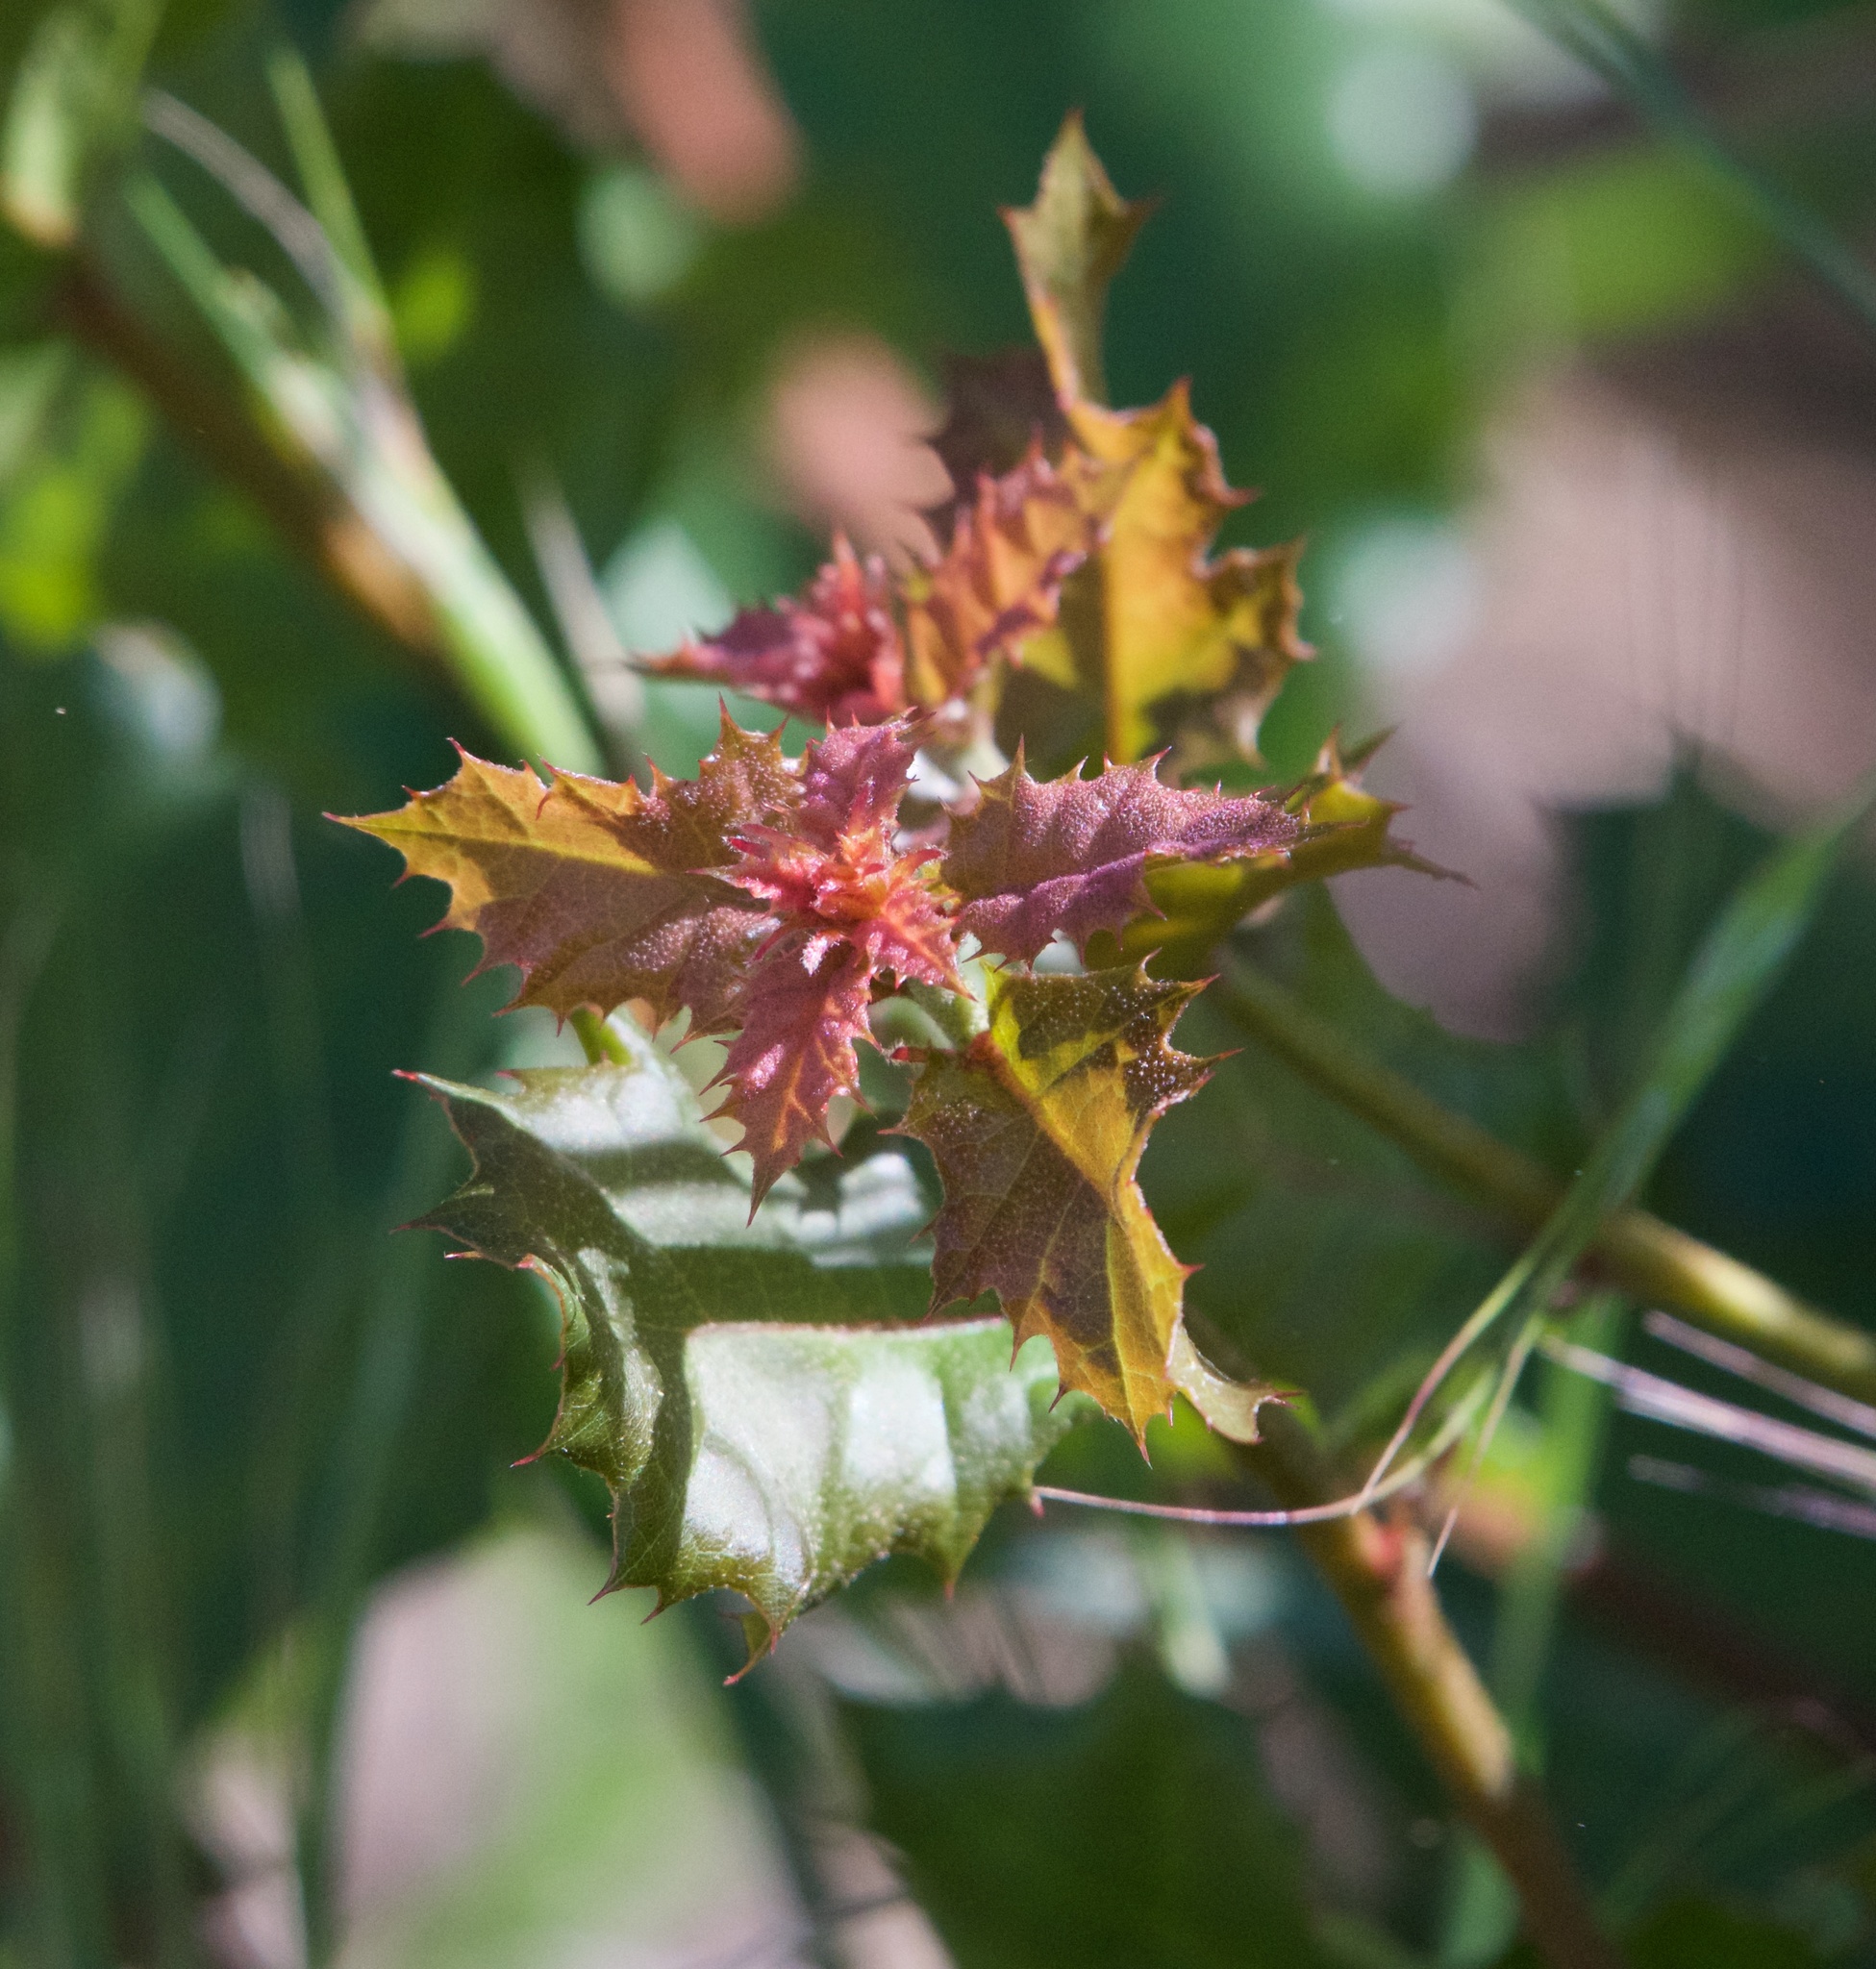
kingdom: Plantae
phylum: Tracheophyta
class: Magnoliopsida
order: Fagales
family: Fagaceae
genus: Quercus
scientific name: Quercus agrifolia
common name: California live oak
